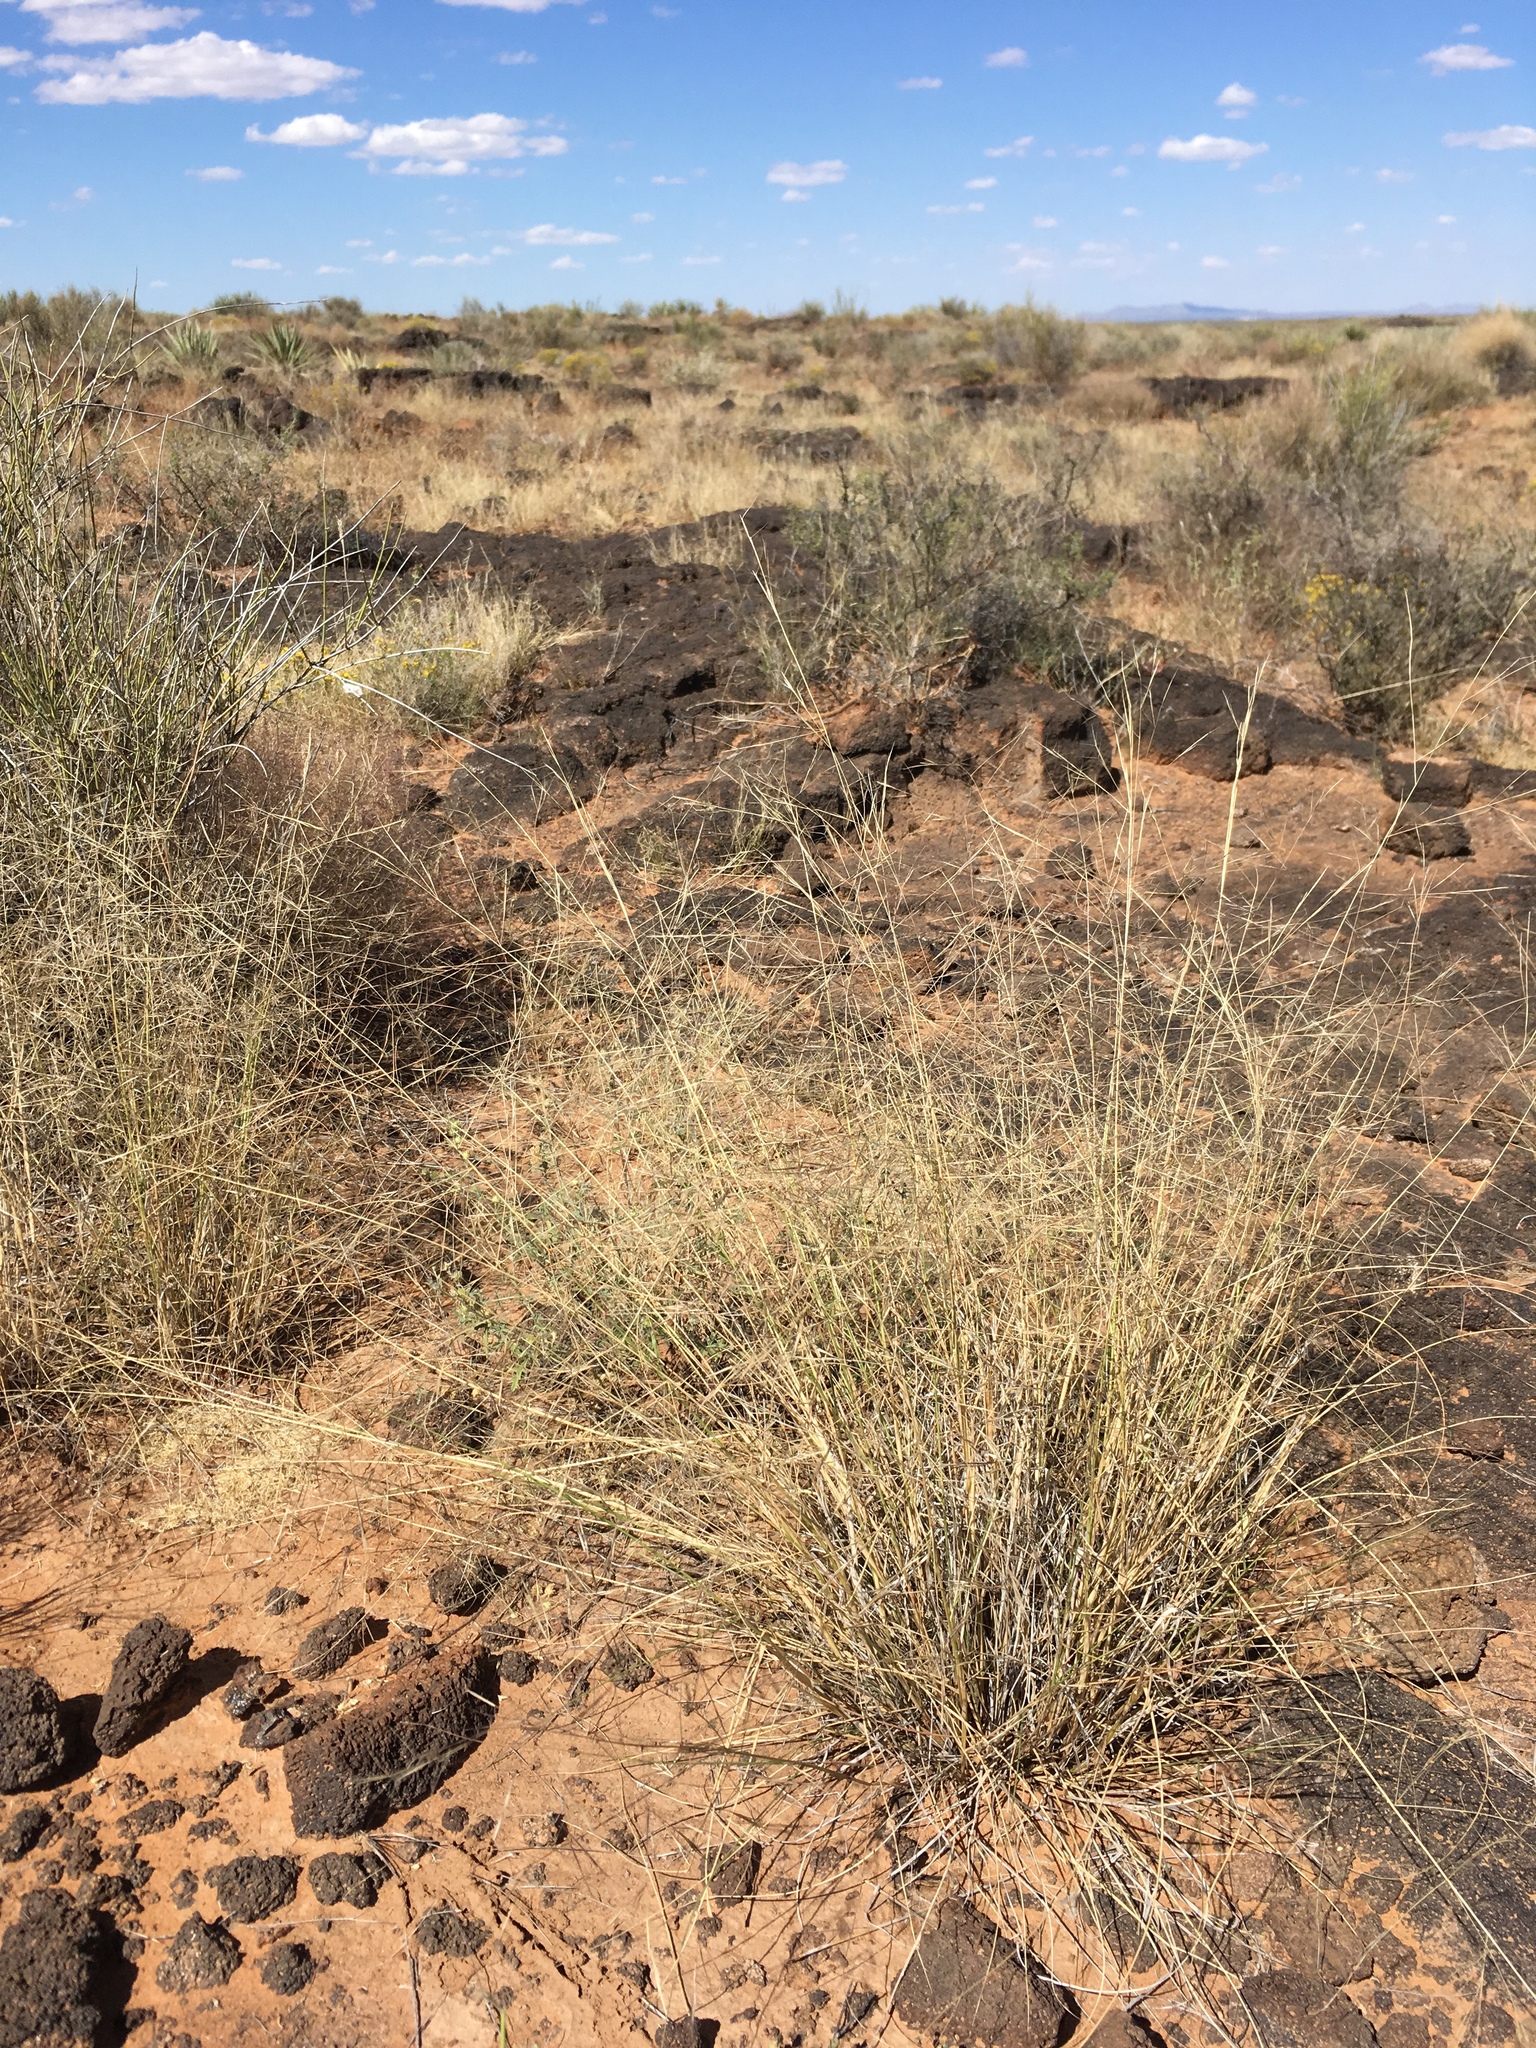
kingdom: Plantae
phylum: Tracheophyta
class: Liliopsida
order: Poales
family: Poaceae
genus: Aristida
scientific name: Aristida hamulosa
